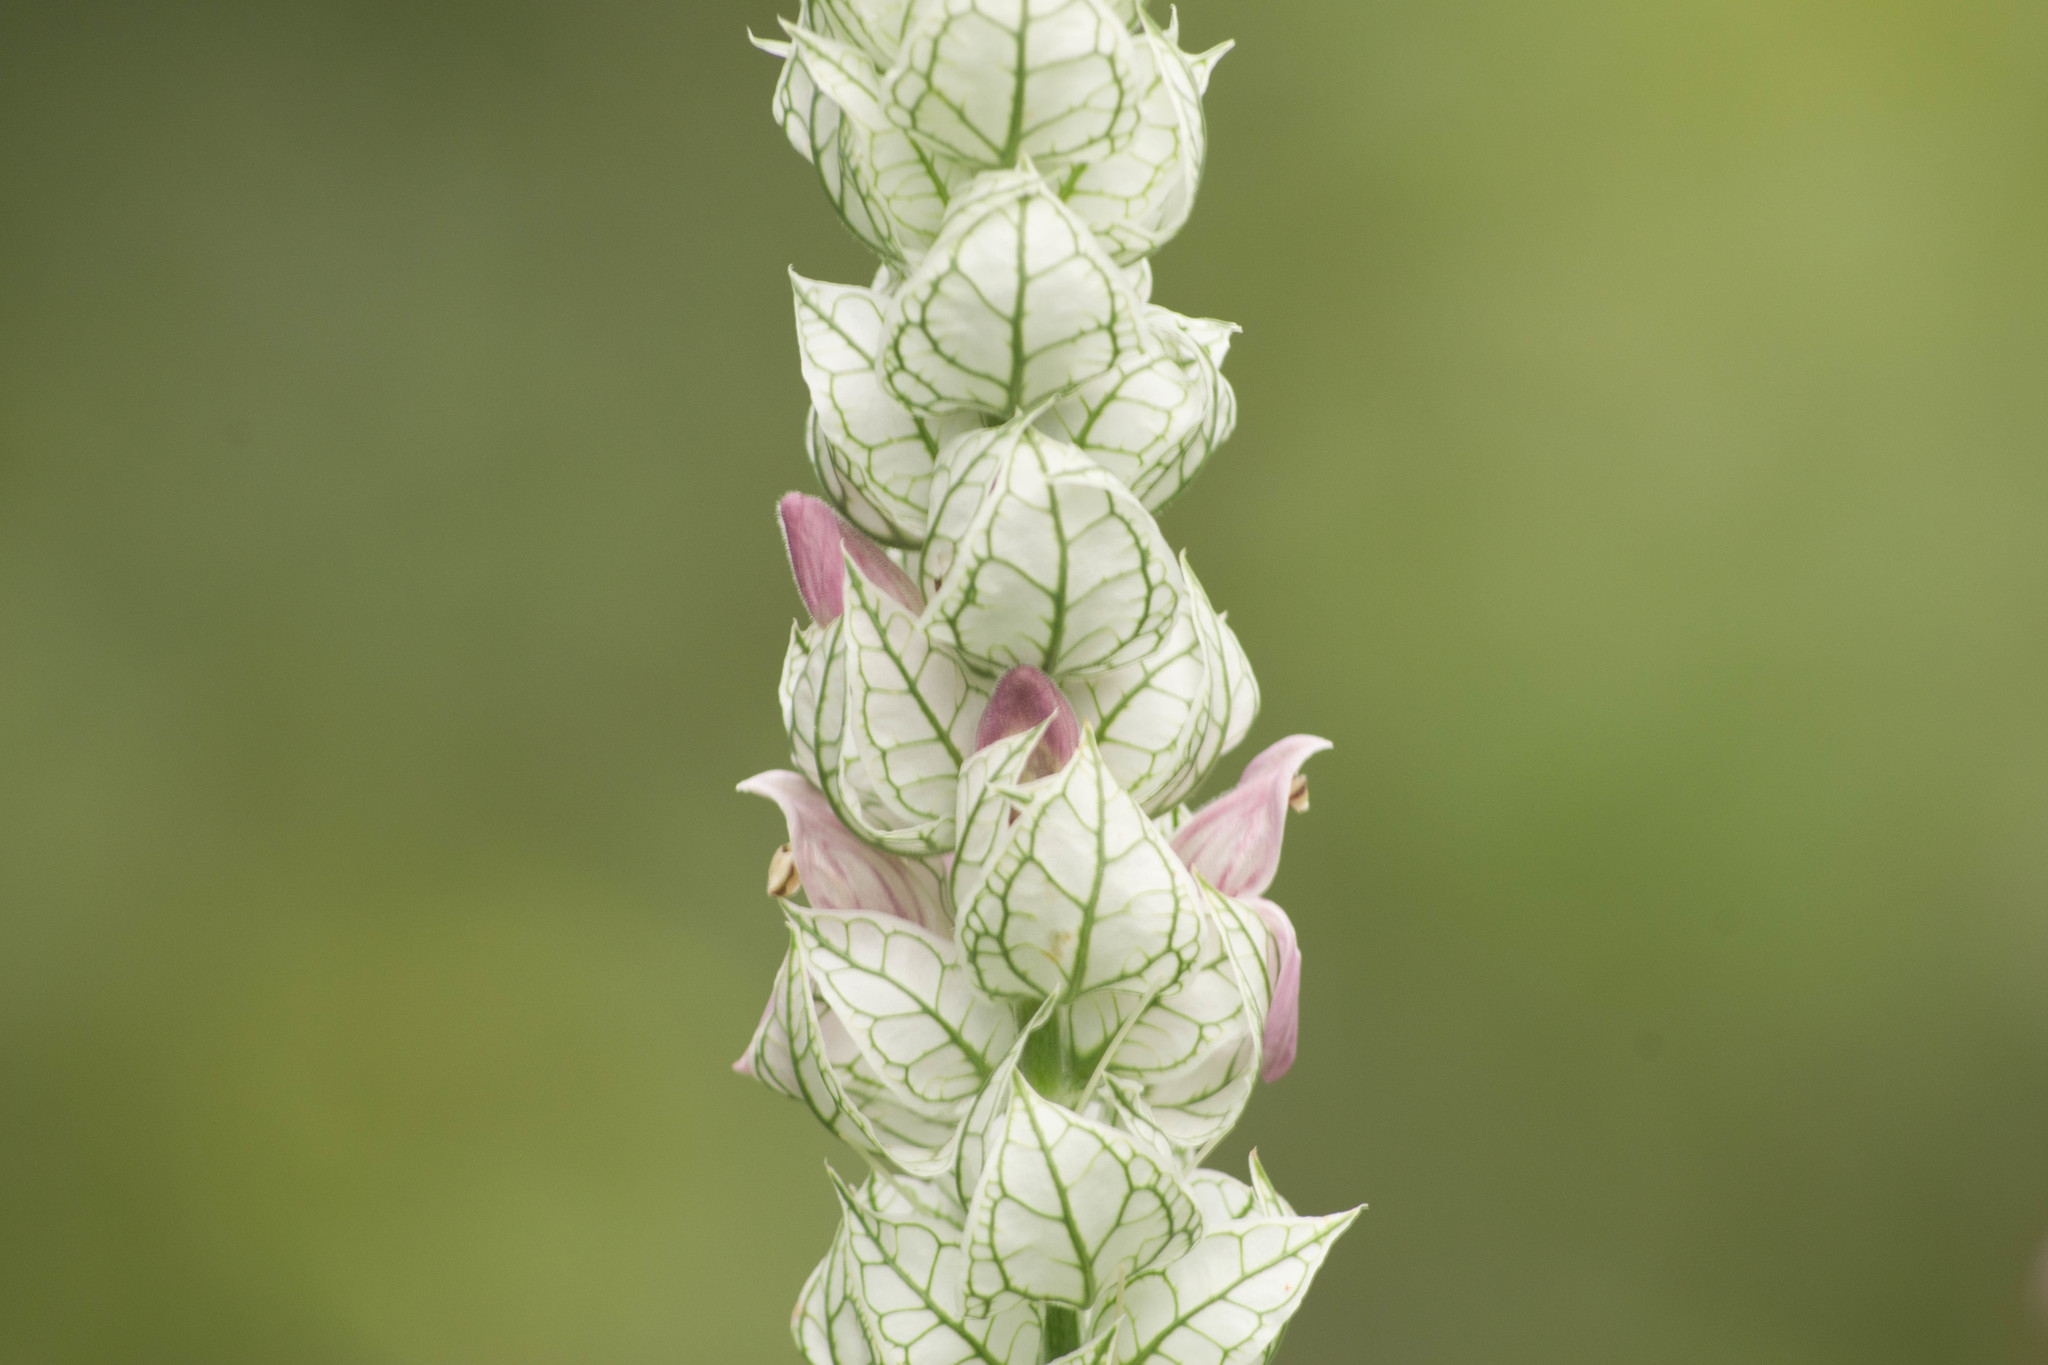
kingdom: Plantae
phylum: Tracheophyta
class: Magnoliopsida
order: Lamiales
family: Acanthaceae
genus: Justicia
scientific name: Justicia betonica
